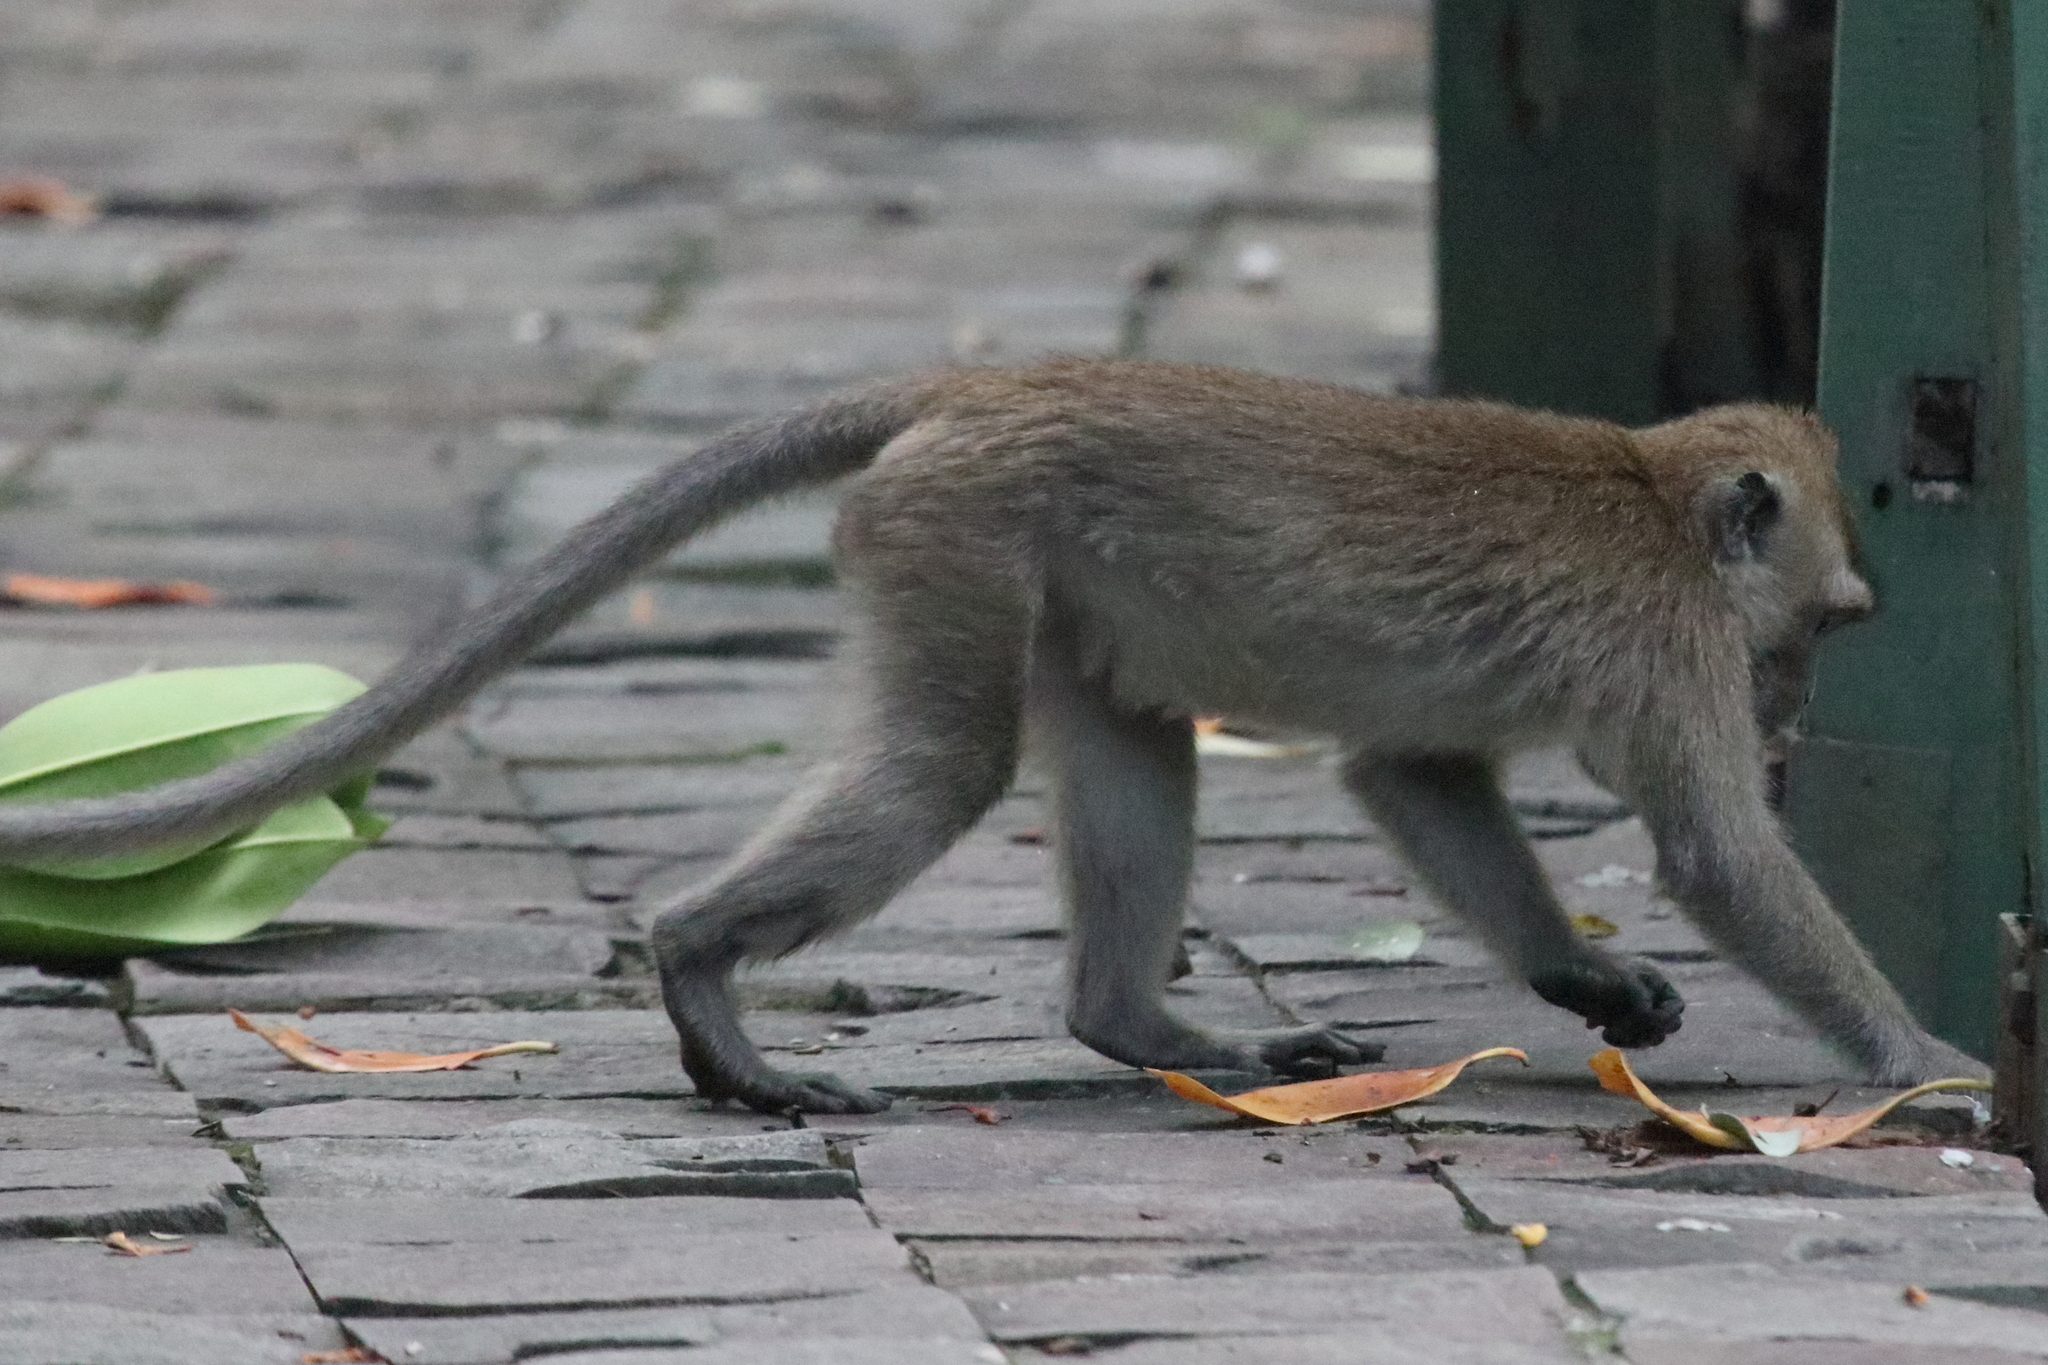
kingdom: Animalia
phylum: Chordata
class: Mammalia
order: Primates
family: Cercopithecidae
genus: Macaca
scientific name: Macaca fascicularis
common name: Crab-eating macaque
